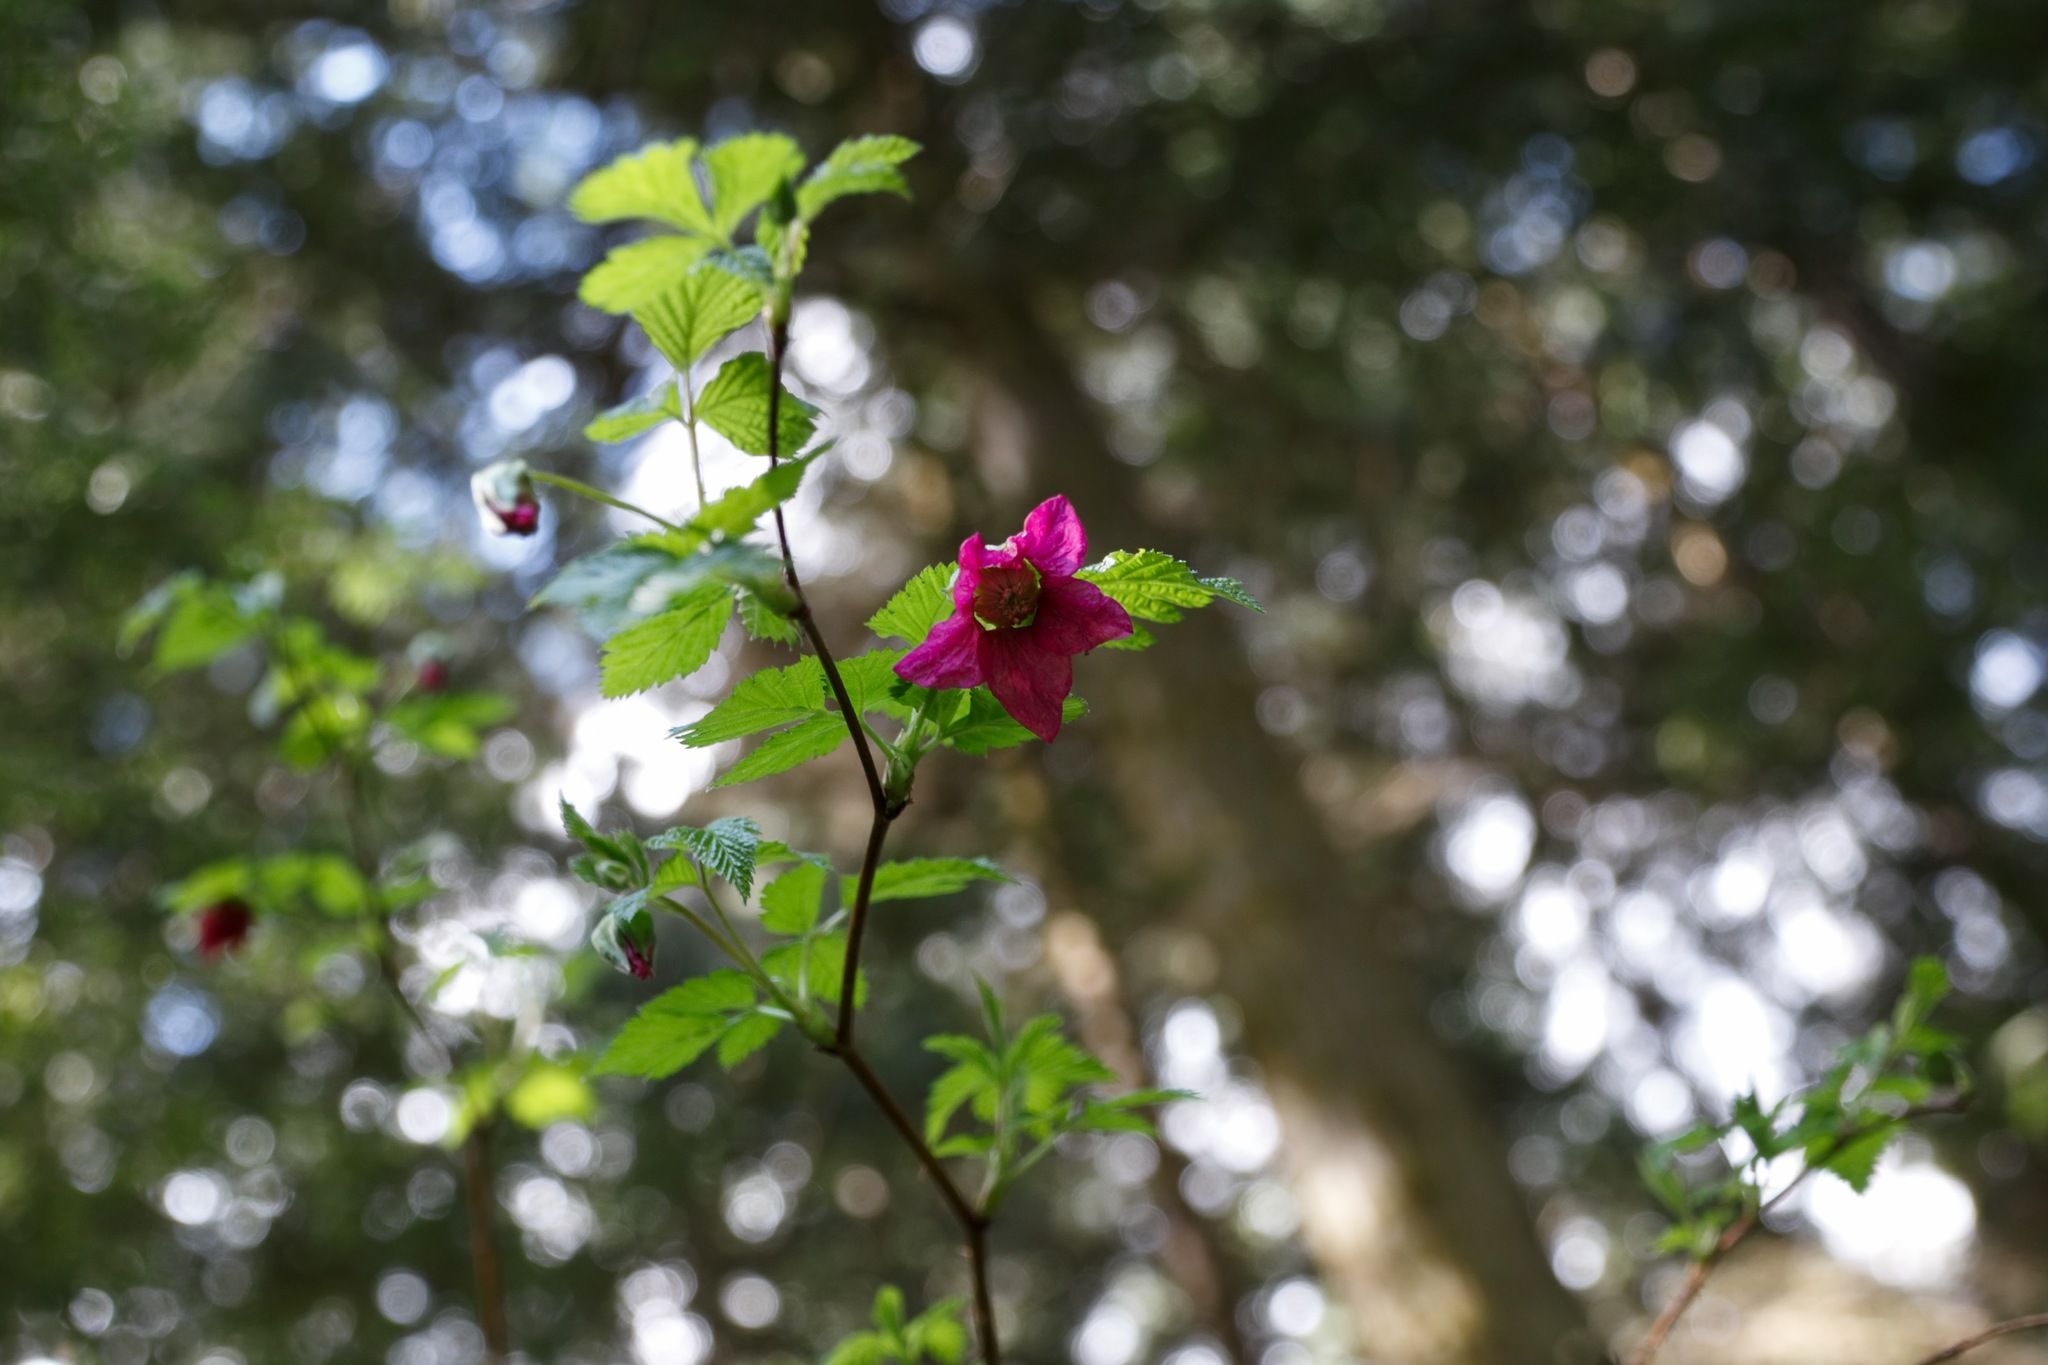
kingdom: Plantae
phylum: Tracheophyta
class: Magnoliopsida
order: Rosales
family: Rosaceae
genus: Rubus
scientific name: Rubus spectabilis
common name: Salmonberry
